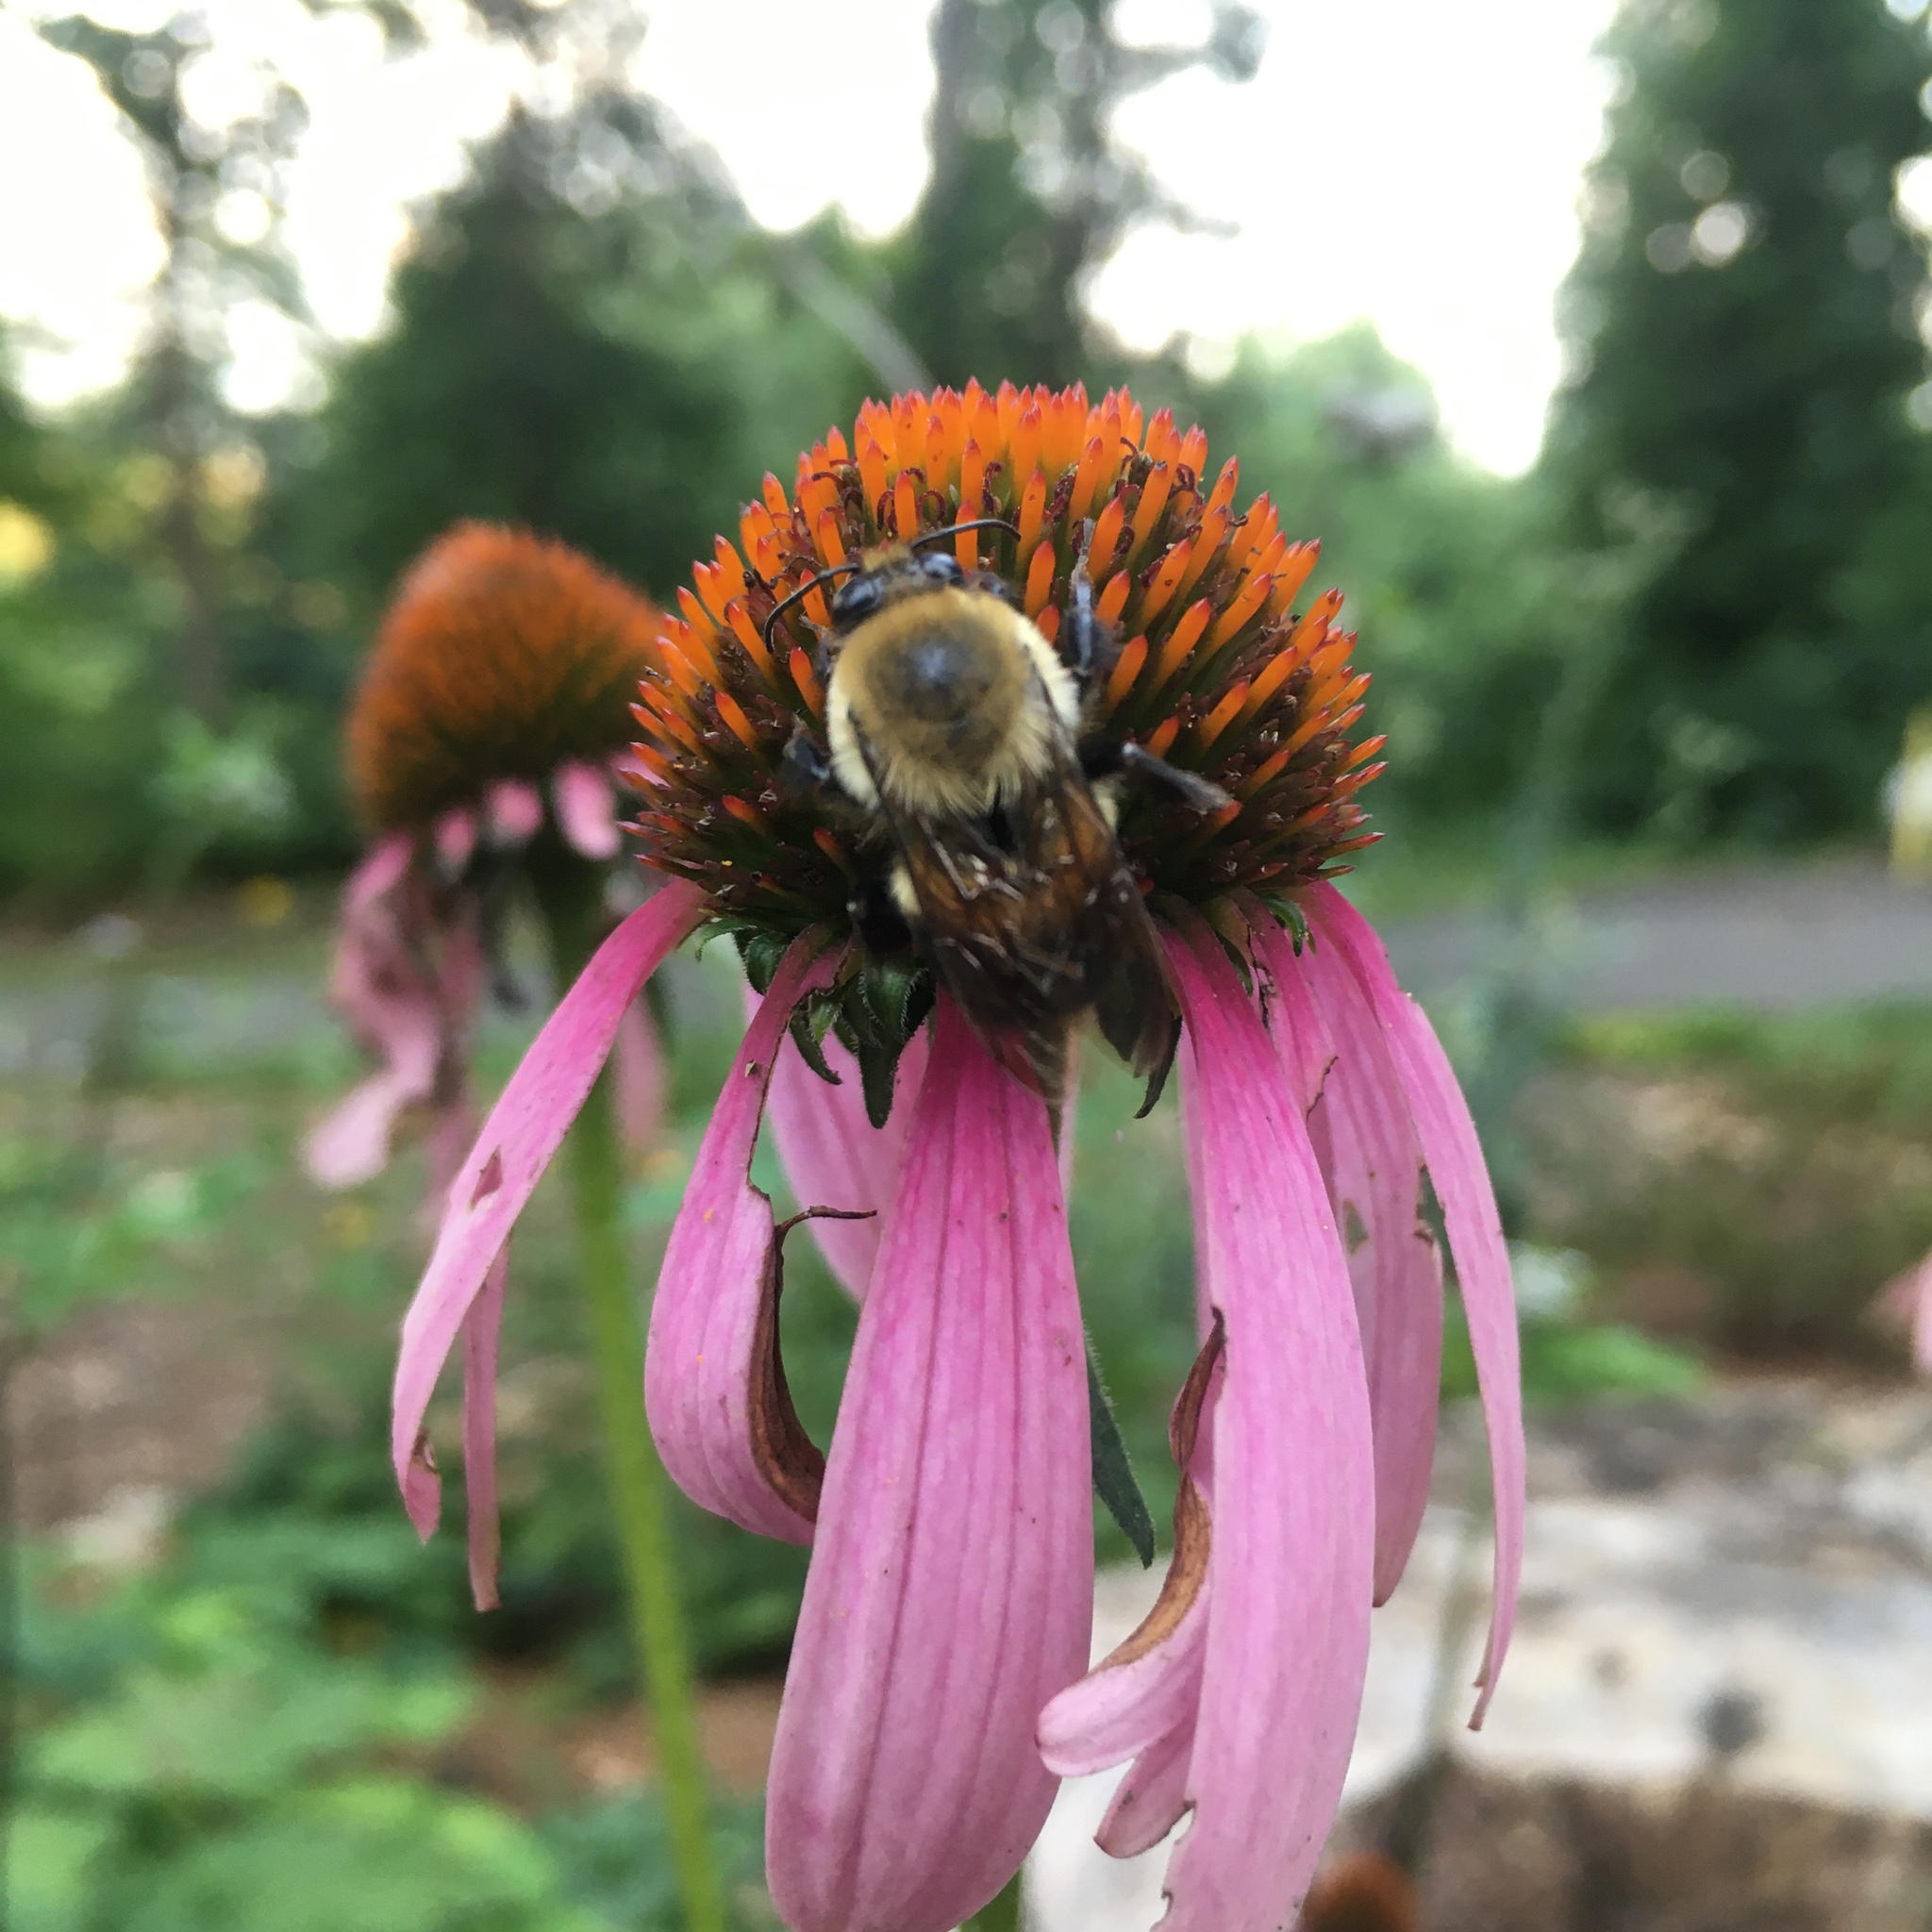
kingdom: Animalia
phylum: Arthropoda
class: Insecta
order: Hymenoptera
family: Apidae
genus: Bombus
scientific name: Bombus griseocollis
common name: Brown-belted bumble bee
